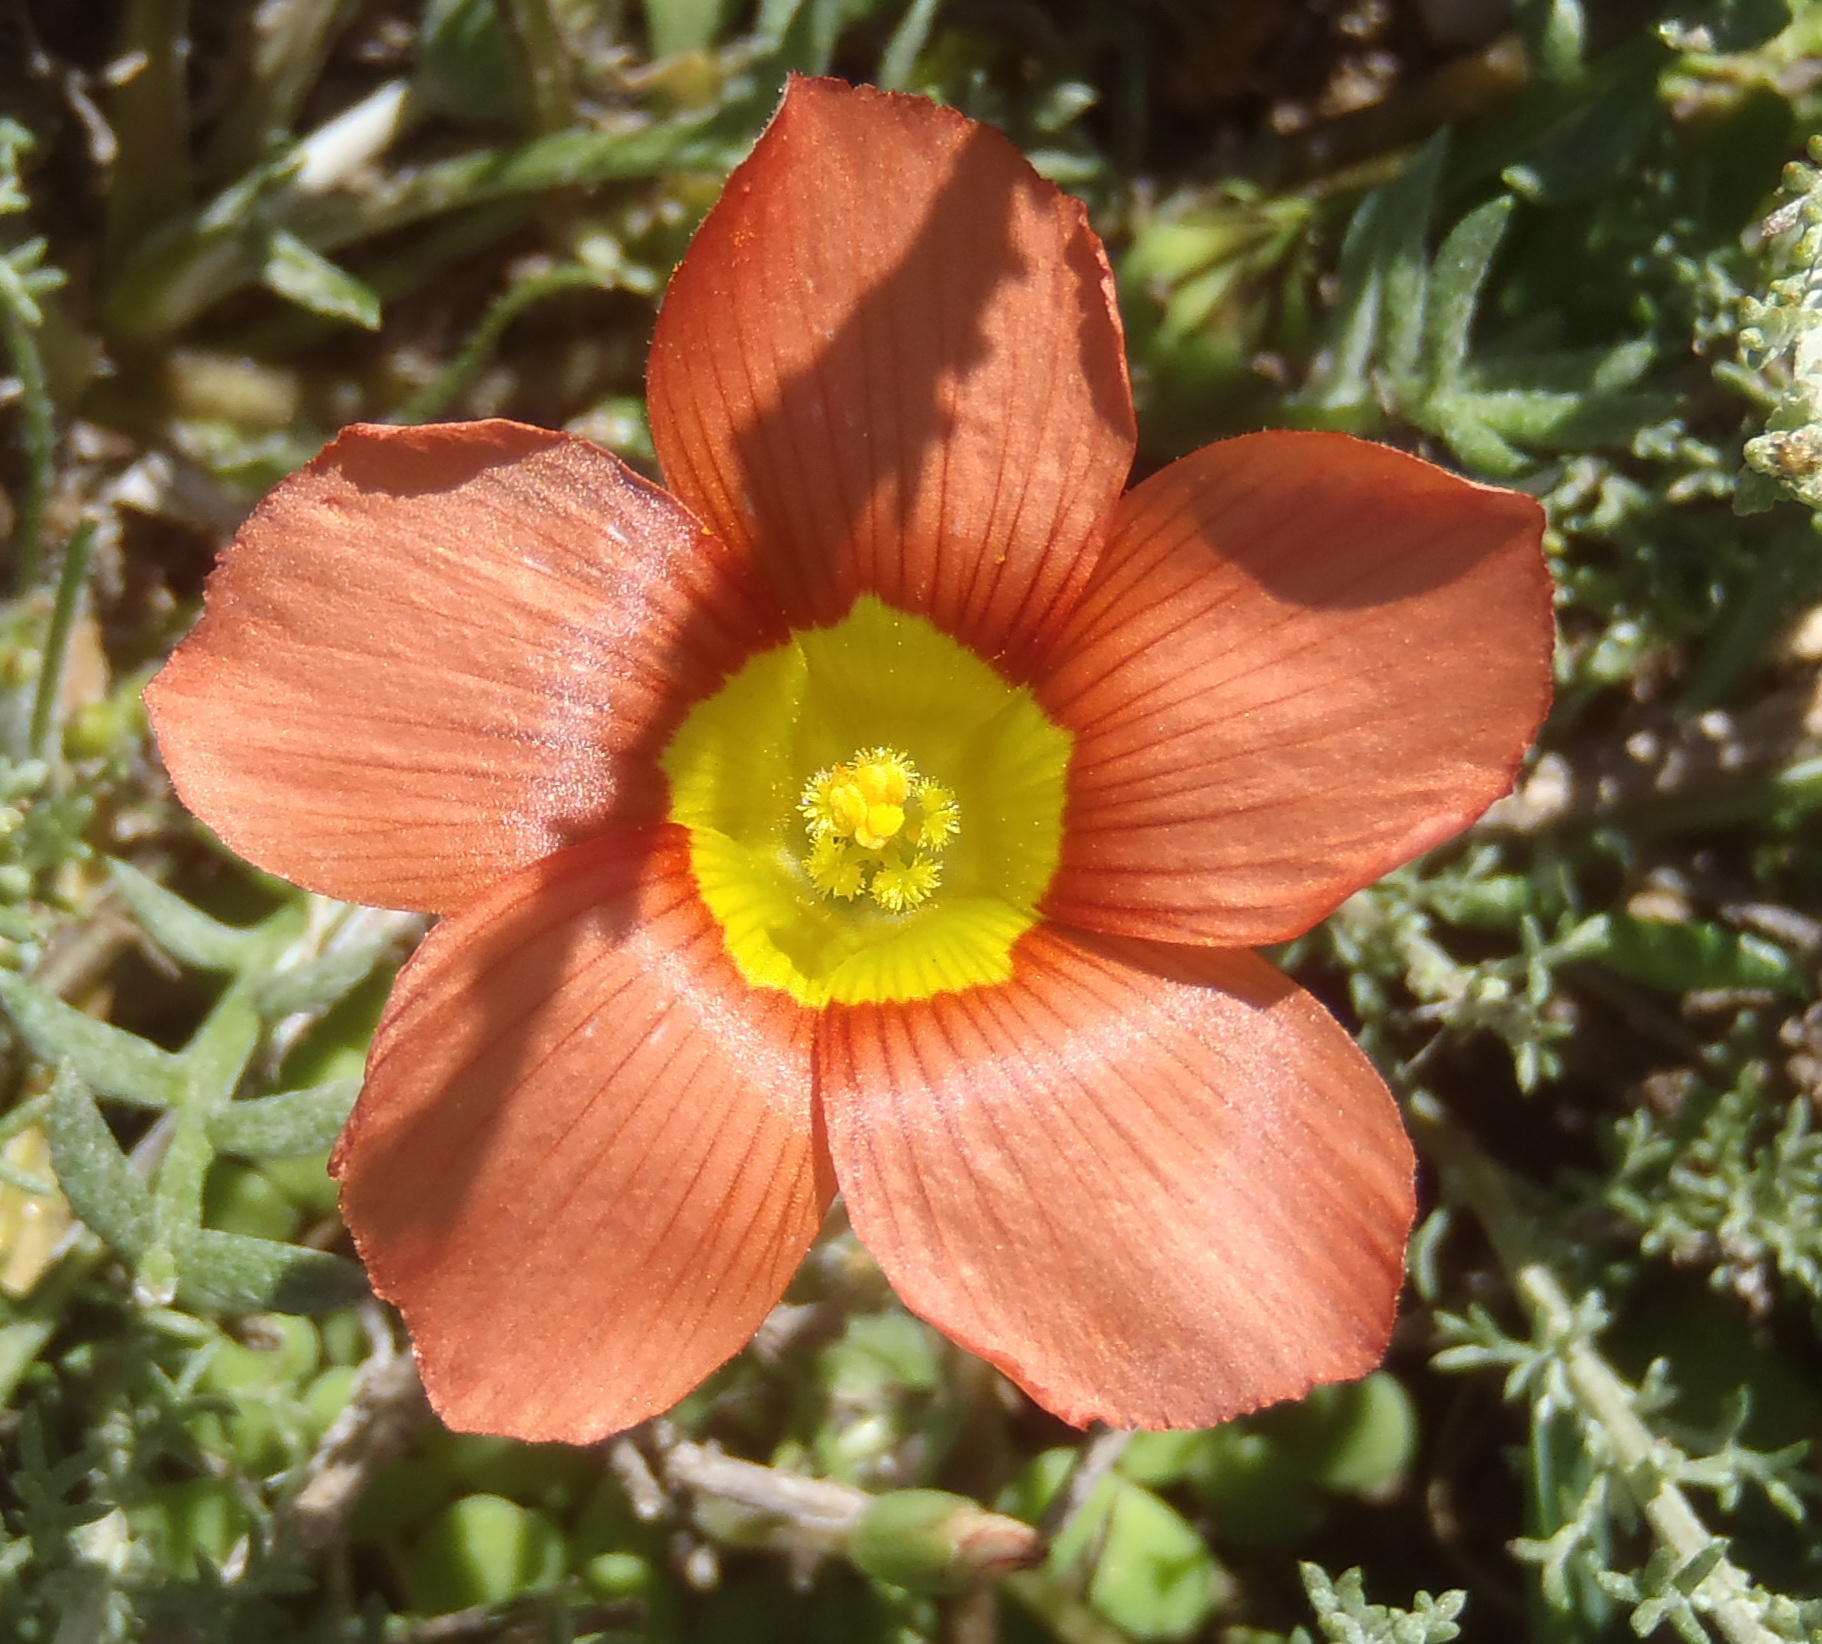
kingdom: Plantae
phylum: Tracheophyta
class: Magnoliopsida
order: Oxalidales
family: Oxalidaceae
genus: Oxalis
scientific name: Oxalis fergusoniae
